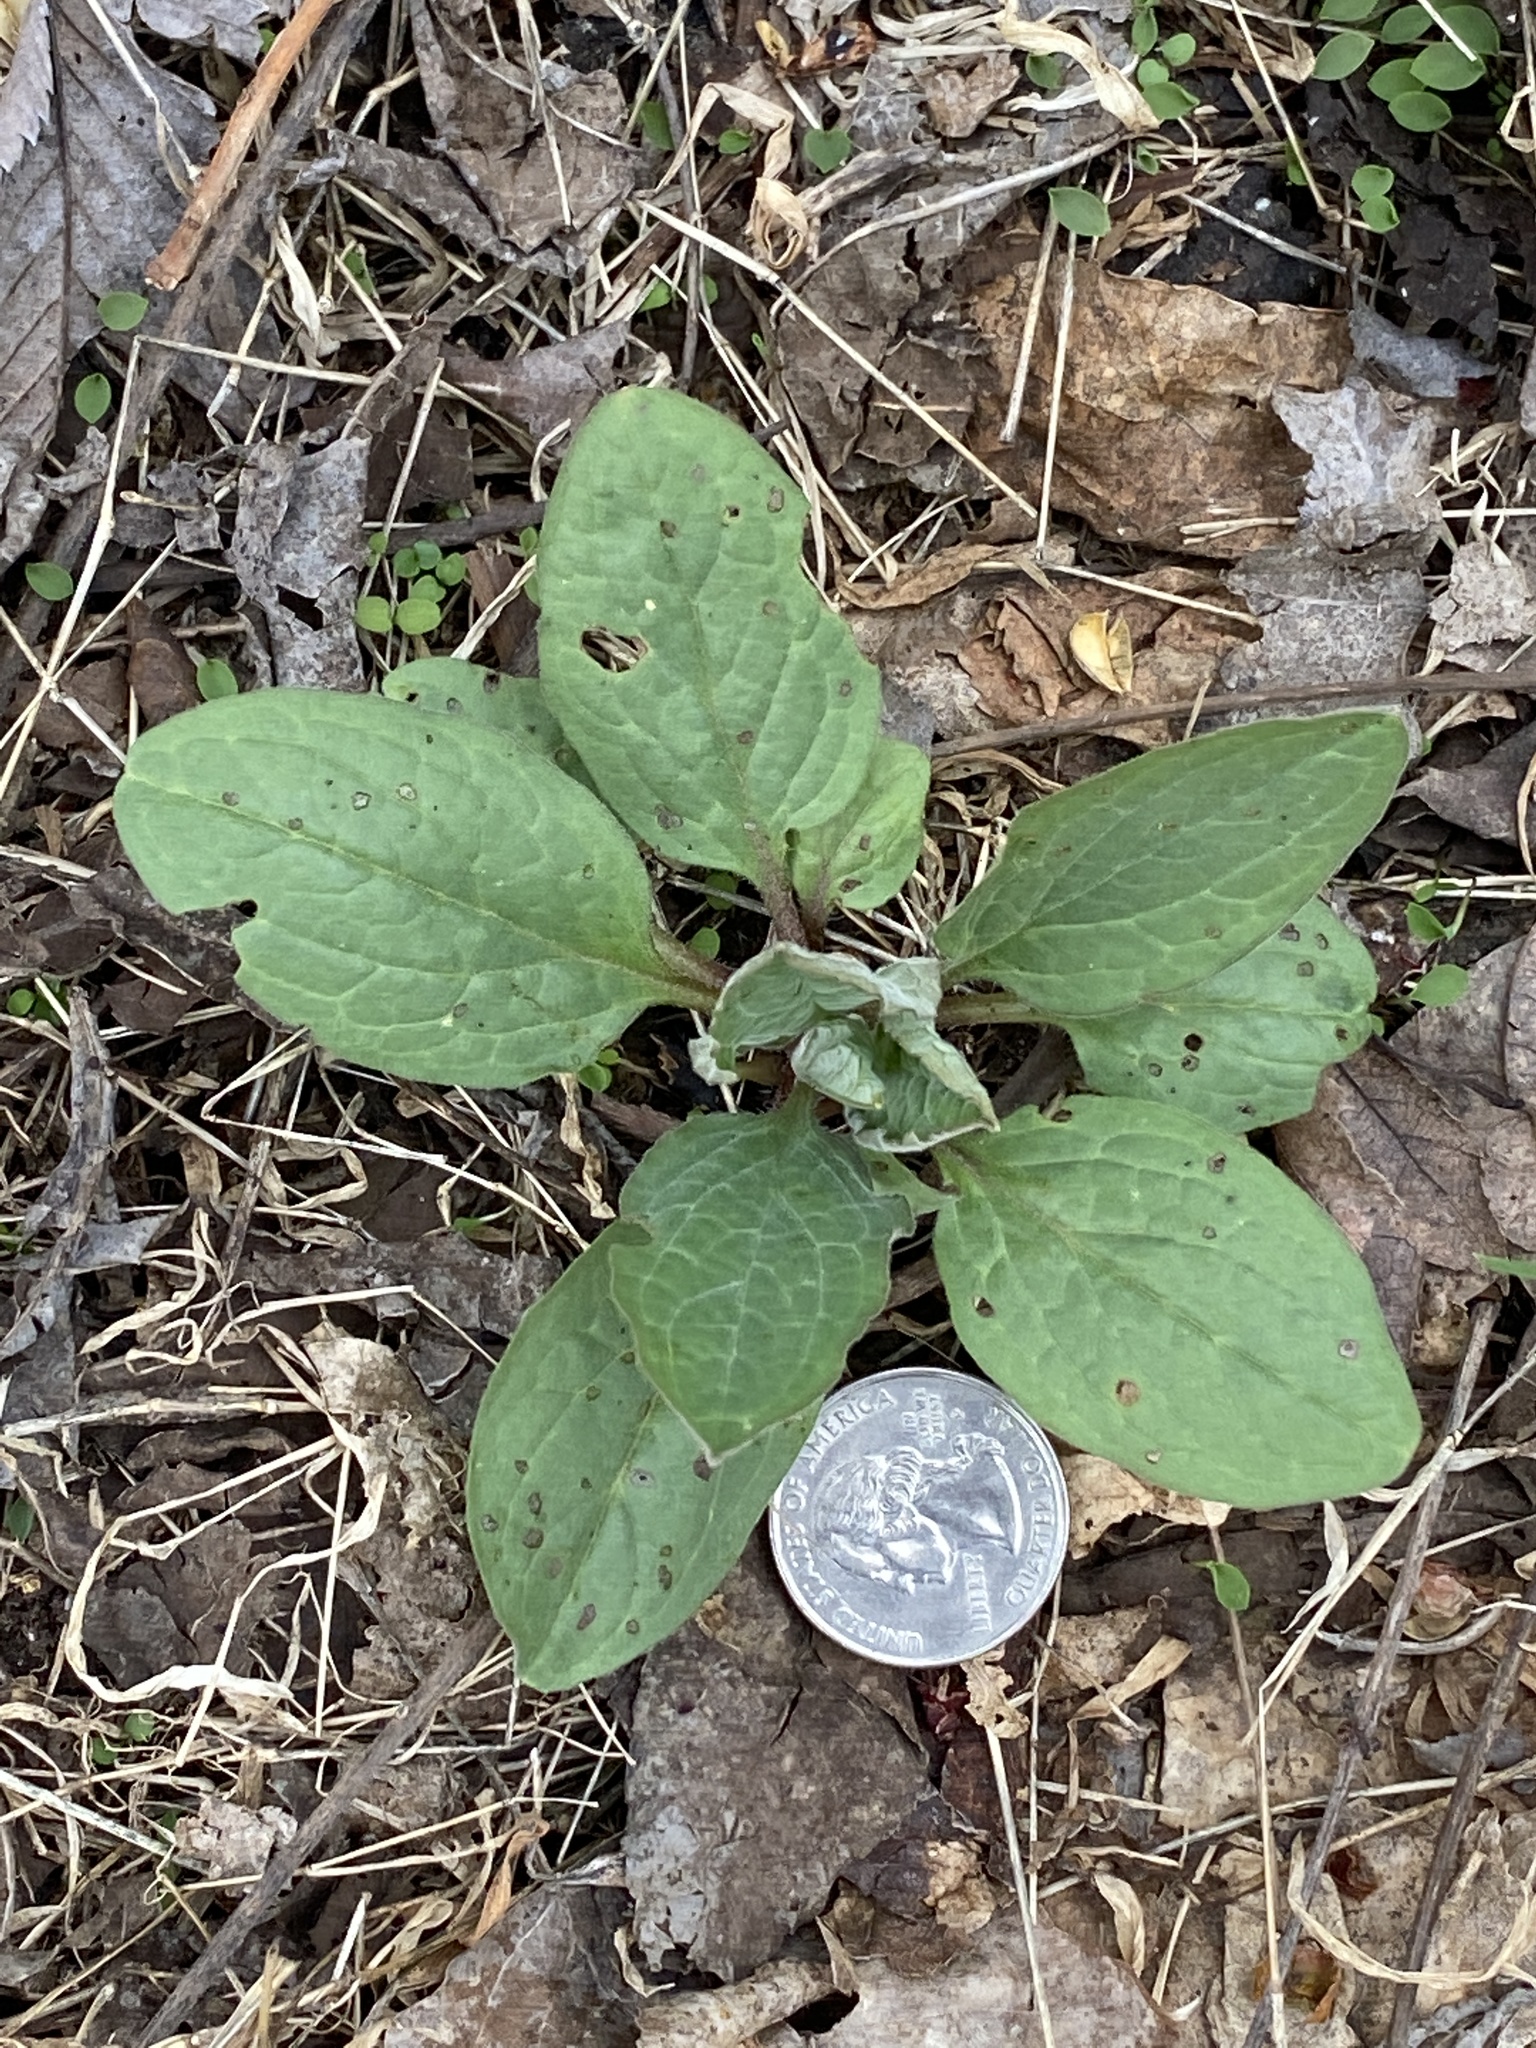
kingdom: Plantae
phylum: Tracheophyta
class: Magnoliopsida
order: Boraginales
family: Boraginaceae
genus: Hackelia
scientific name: Hackelia virginiana
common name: Beggar's-lice
